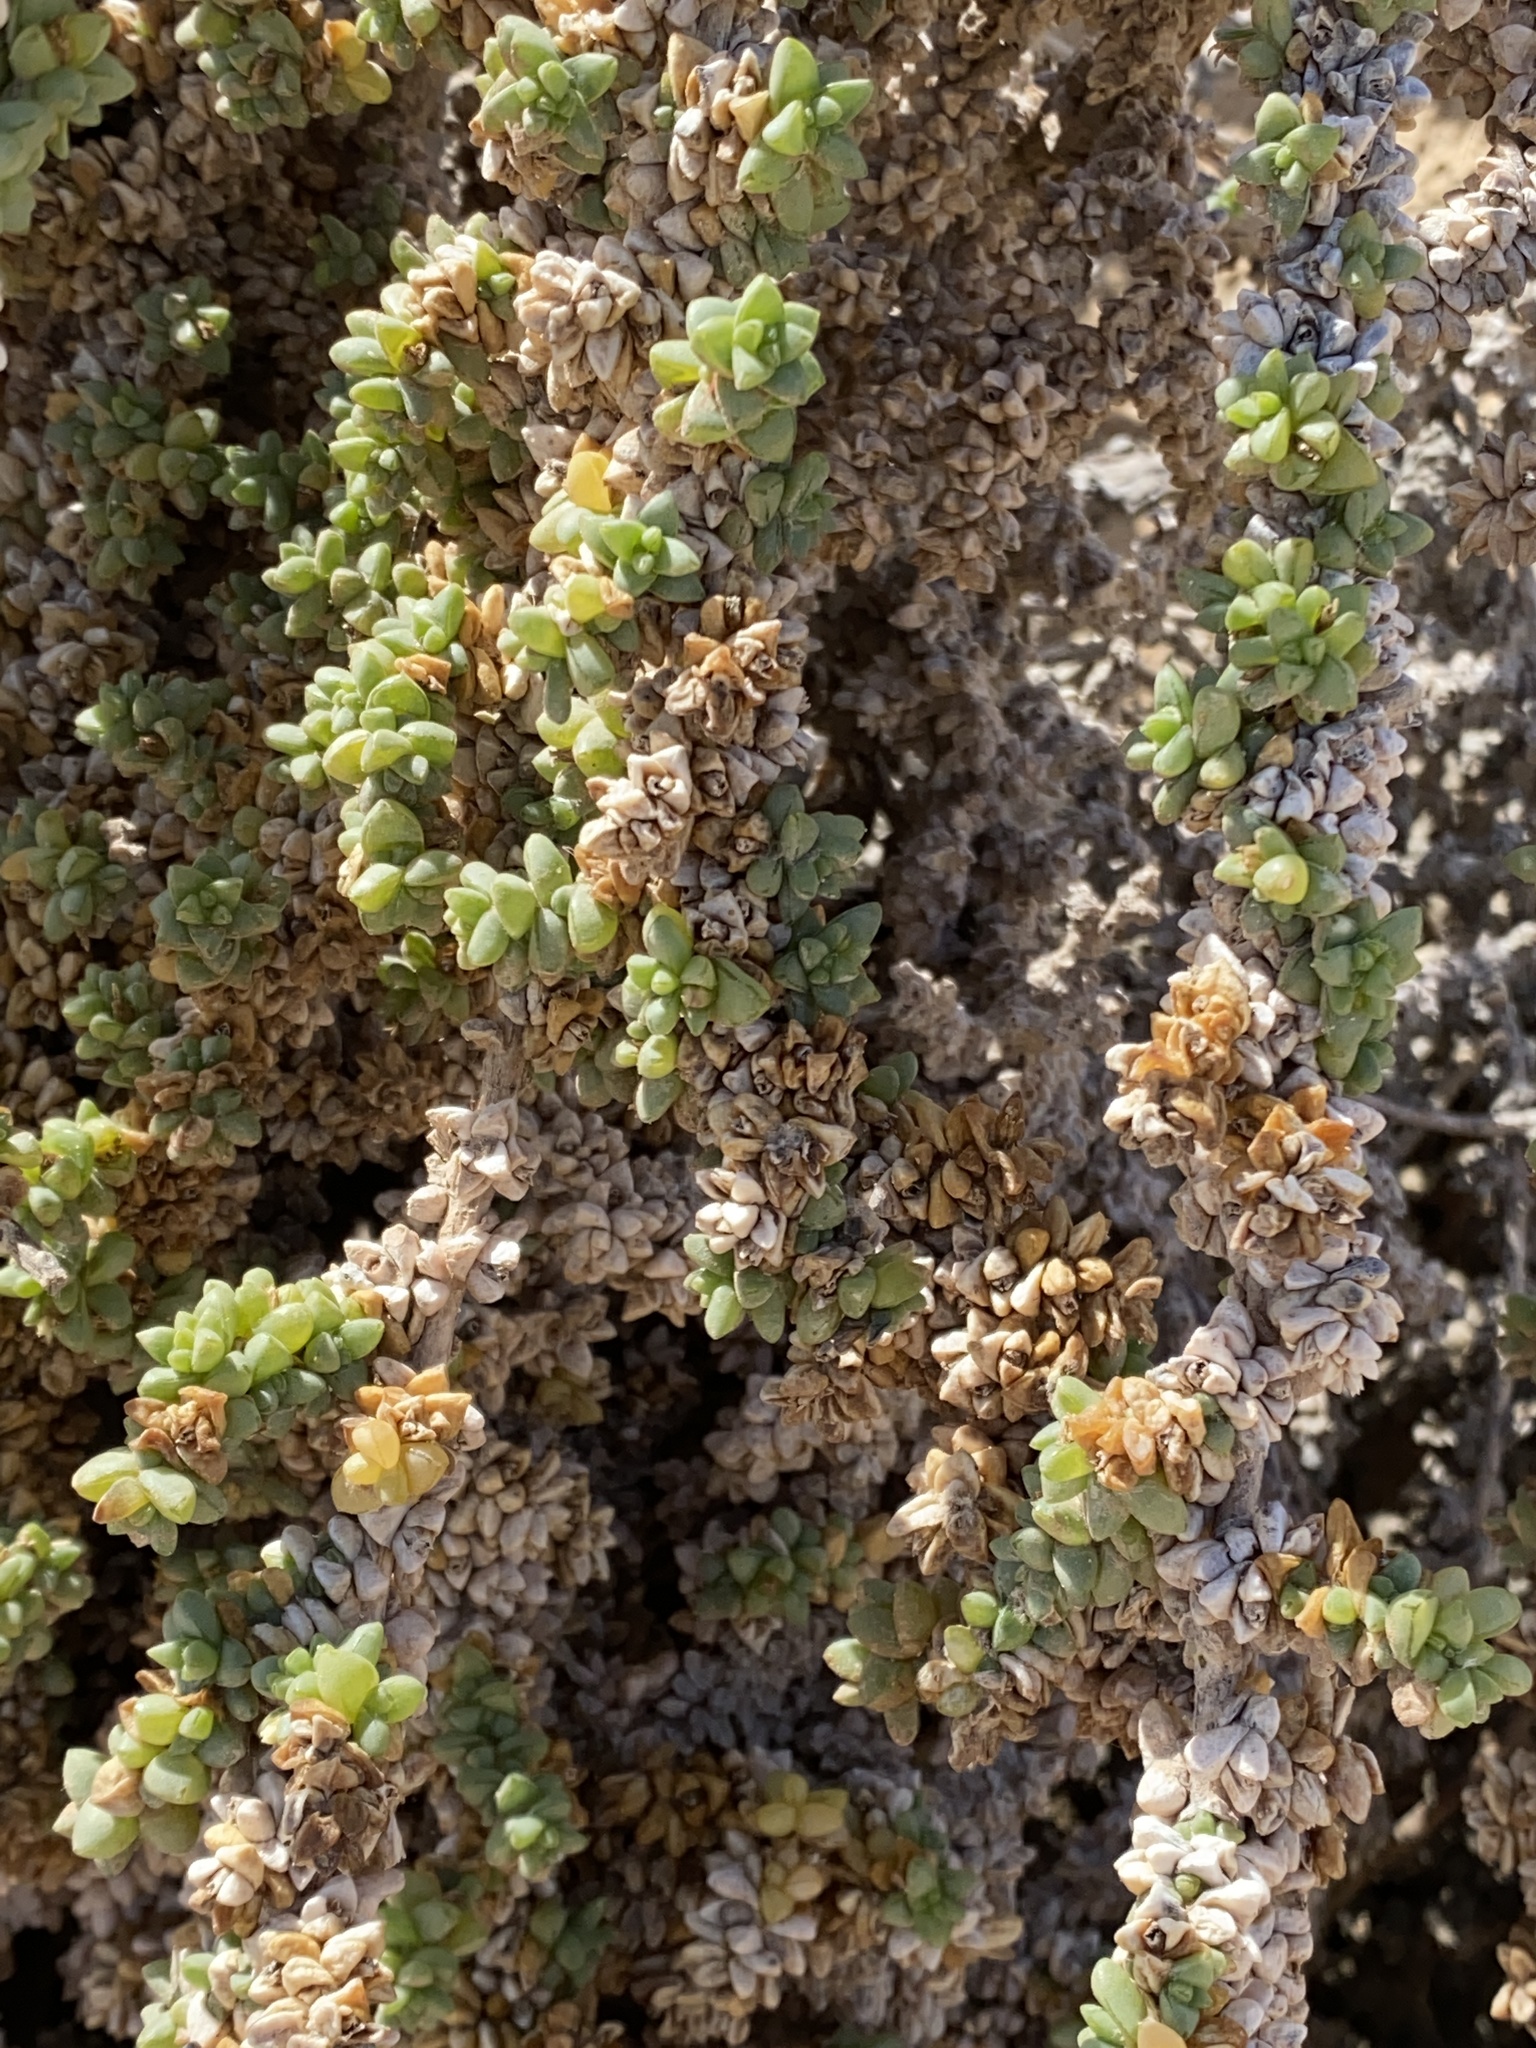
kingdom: Plantae
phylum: Tracheophyta
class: Magnoliopsida
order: Caryophyllales
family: Amaranthaceae
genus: Traganum
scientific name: Traganum moquinii
